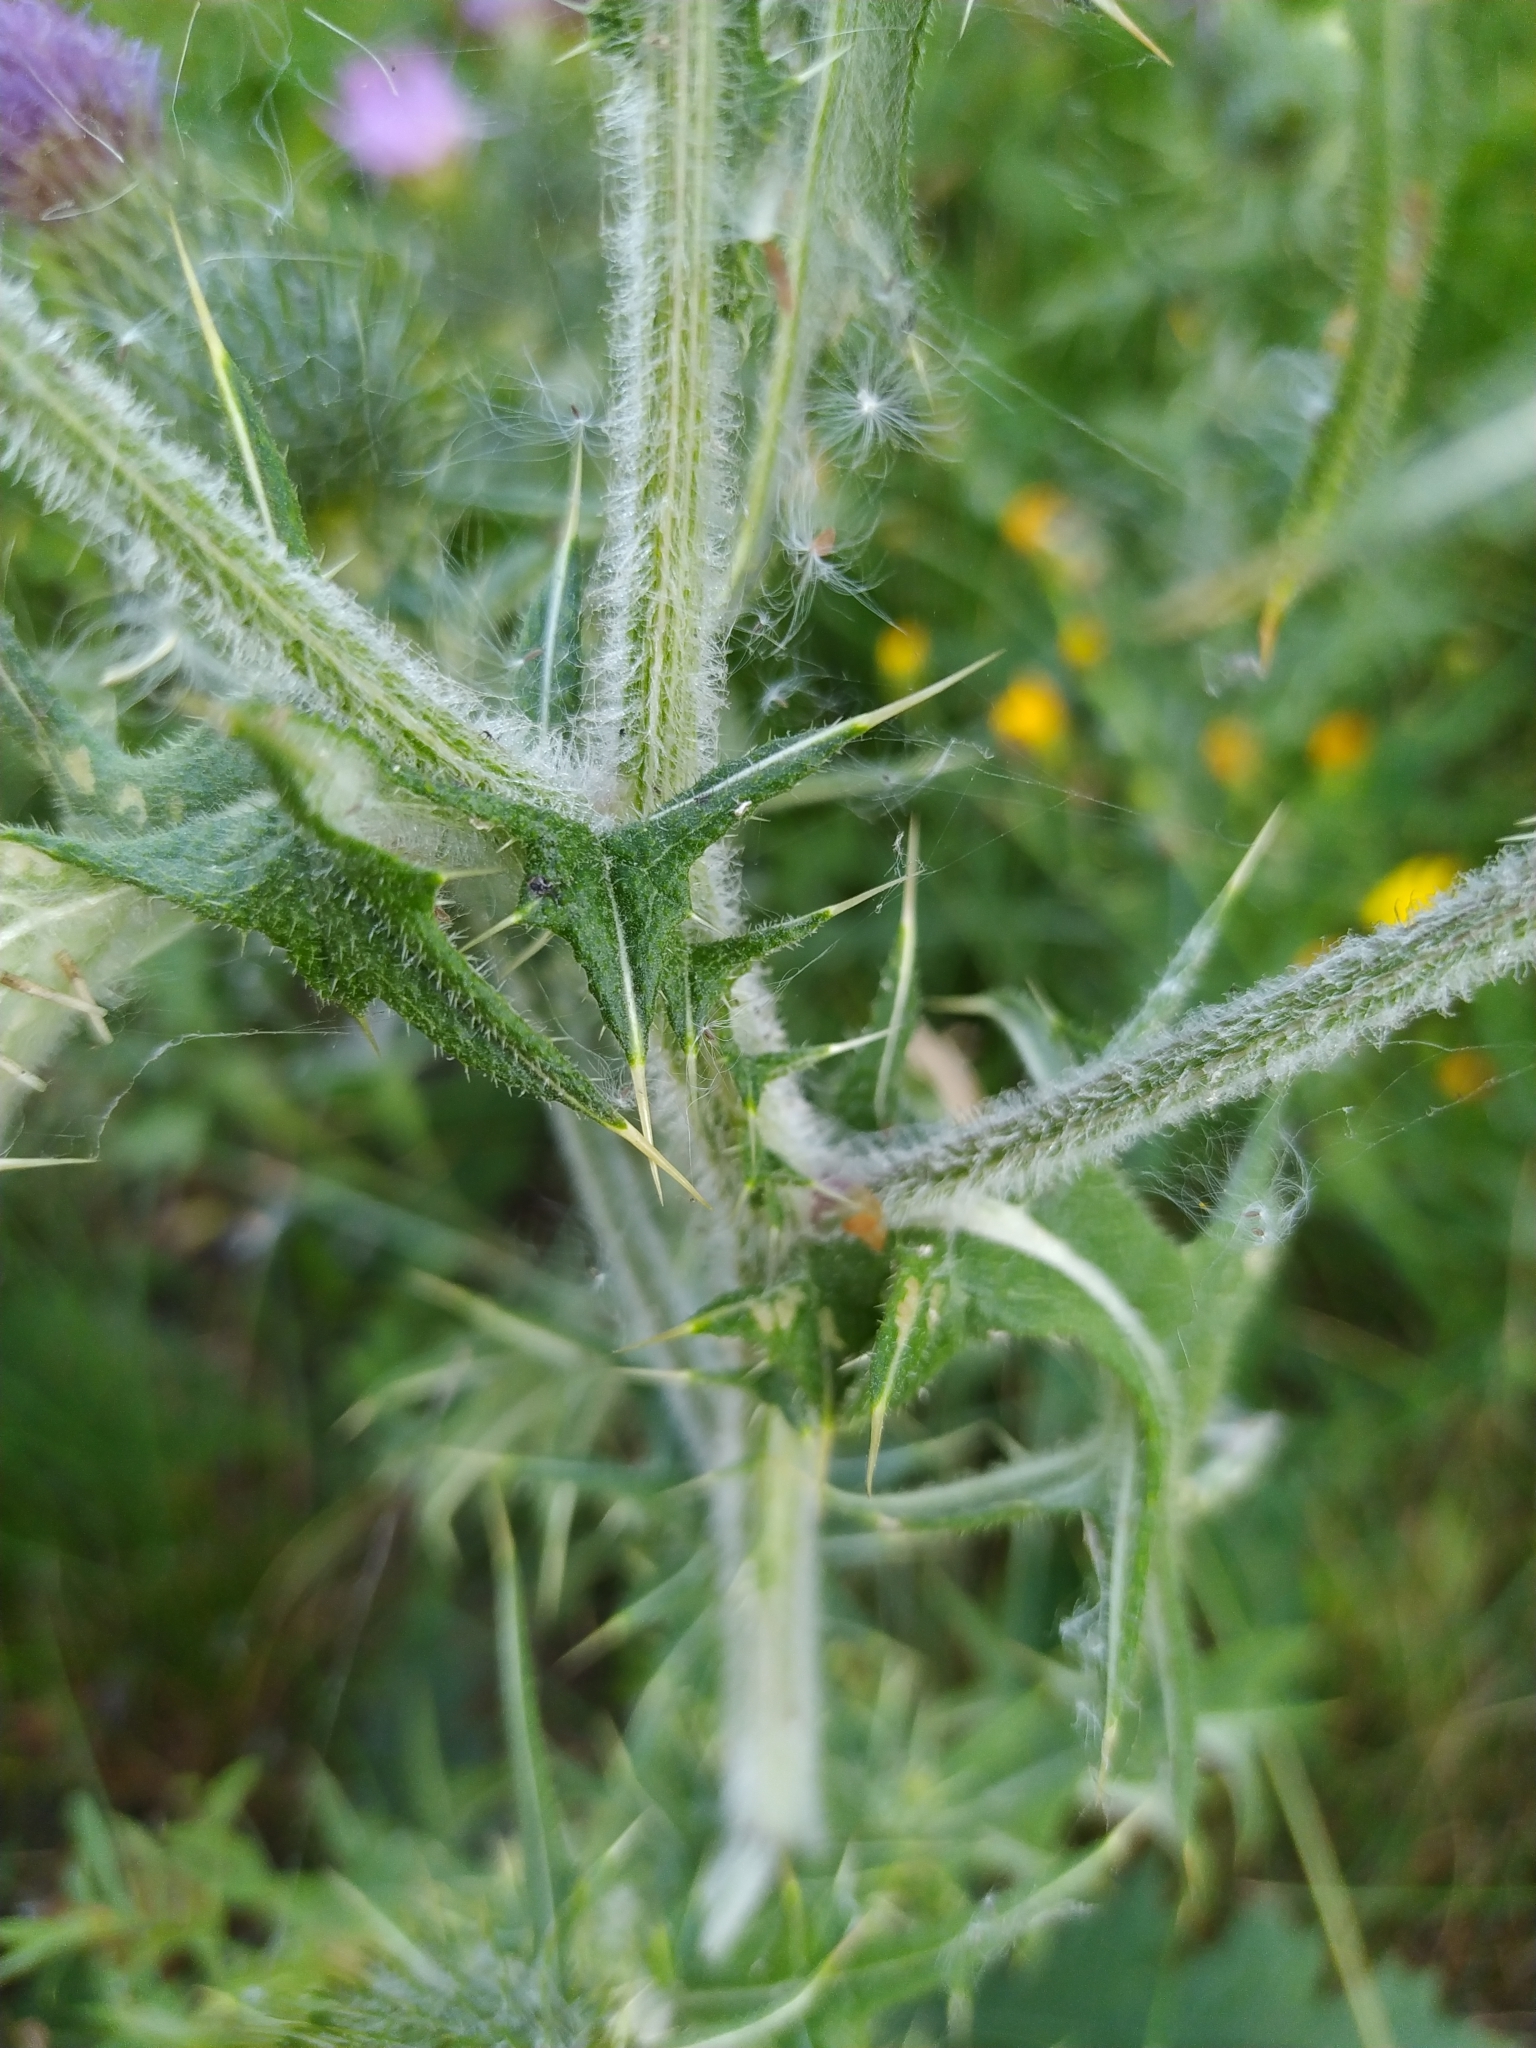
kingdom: Plantae
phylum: Tracheophyta
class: Magnoliopsida
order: Asterales
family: Asteraceae
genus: Cirsium
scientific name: Cirsium vulgare
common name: Bull thistle
